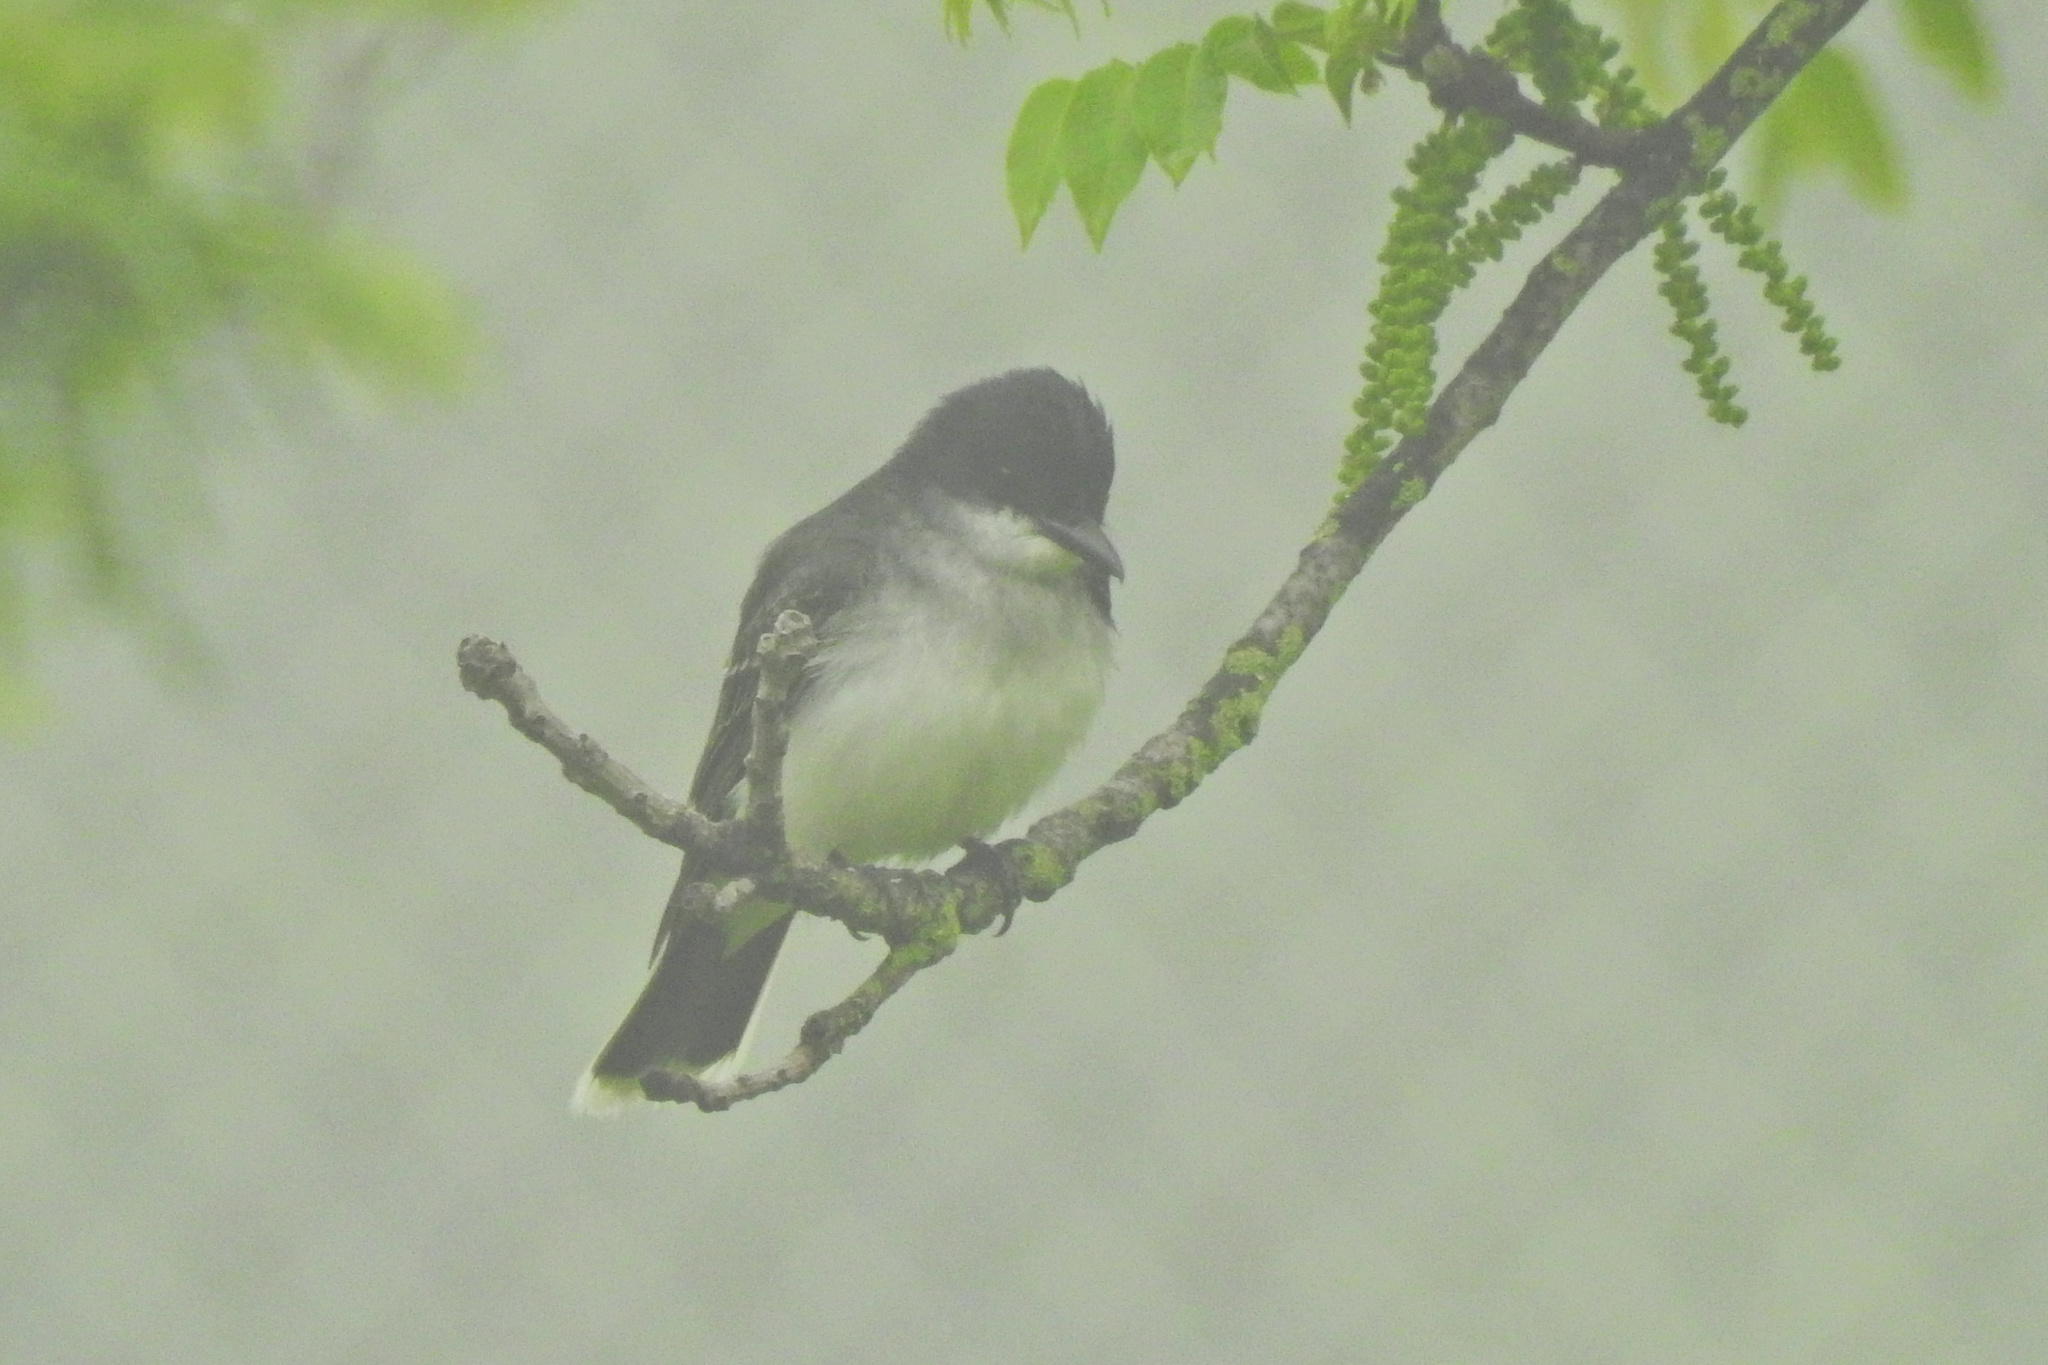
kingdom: Animalia
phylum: Chordata
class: Aves
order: Passeriformes
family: Tyrannidae
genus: Tyrannus
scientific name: Tyrannus tyrannus
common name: Eastern kingbird
